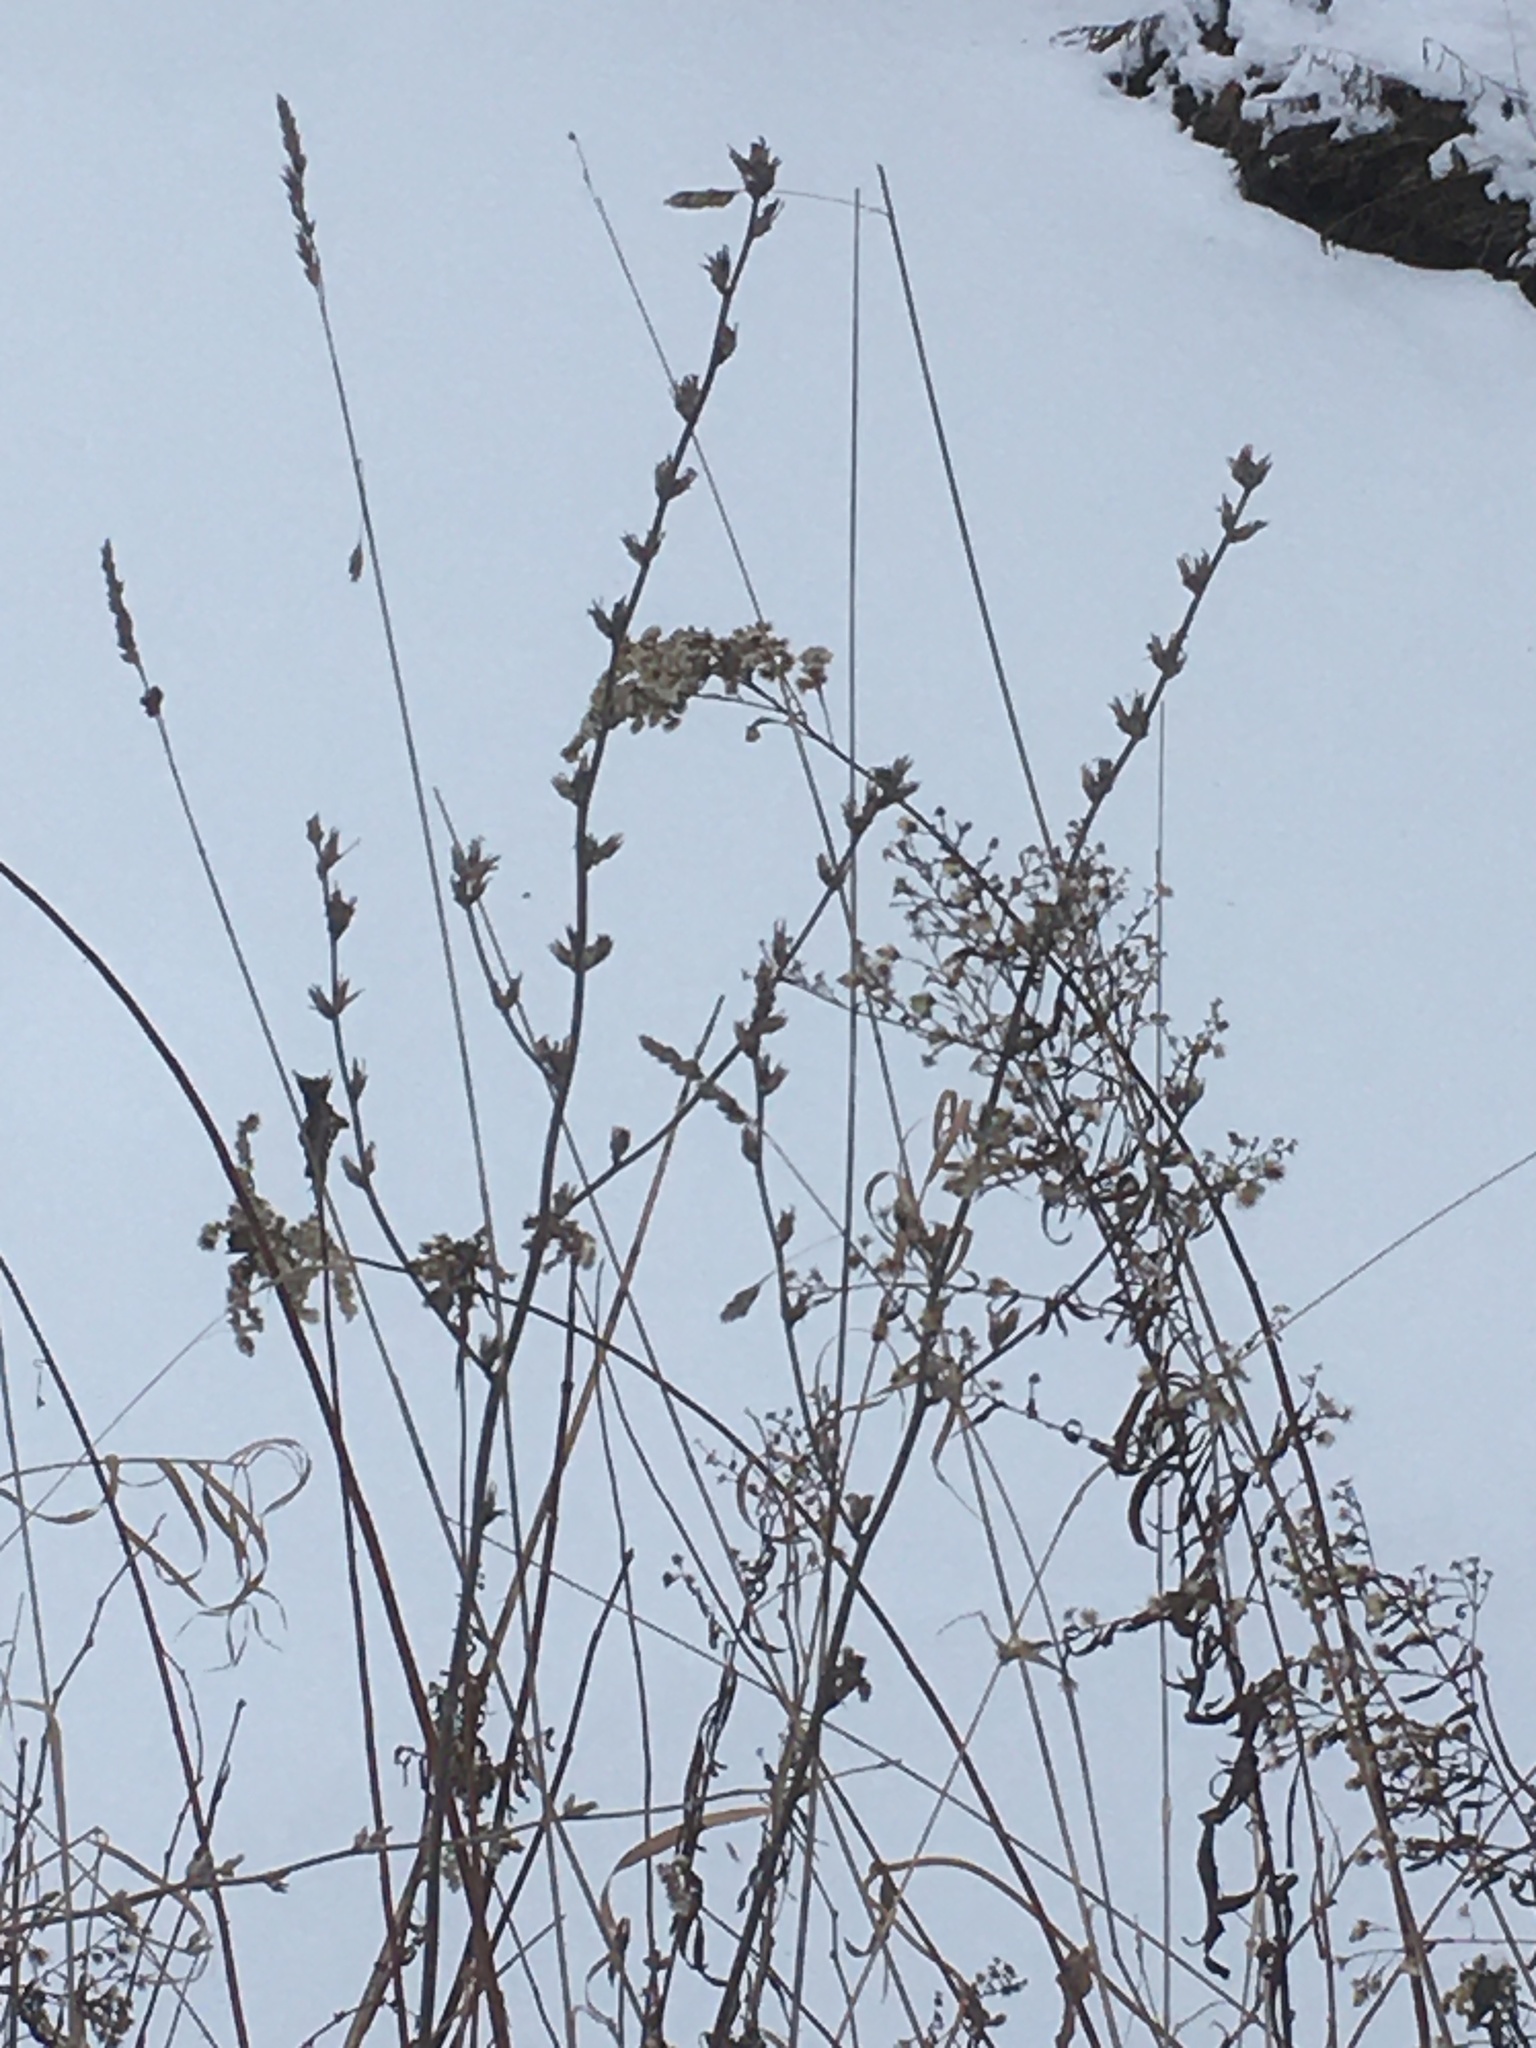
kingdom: Plantae
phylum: Tracheophyta
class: Magnoliopsida
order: Asterales
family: Asteraceae
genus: Cichorium
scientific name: Cichorium intybus
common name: Chicory
